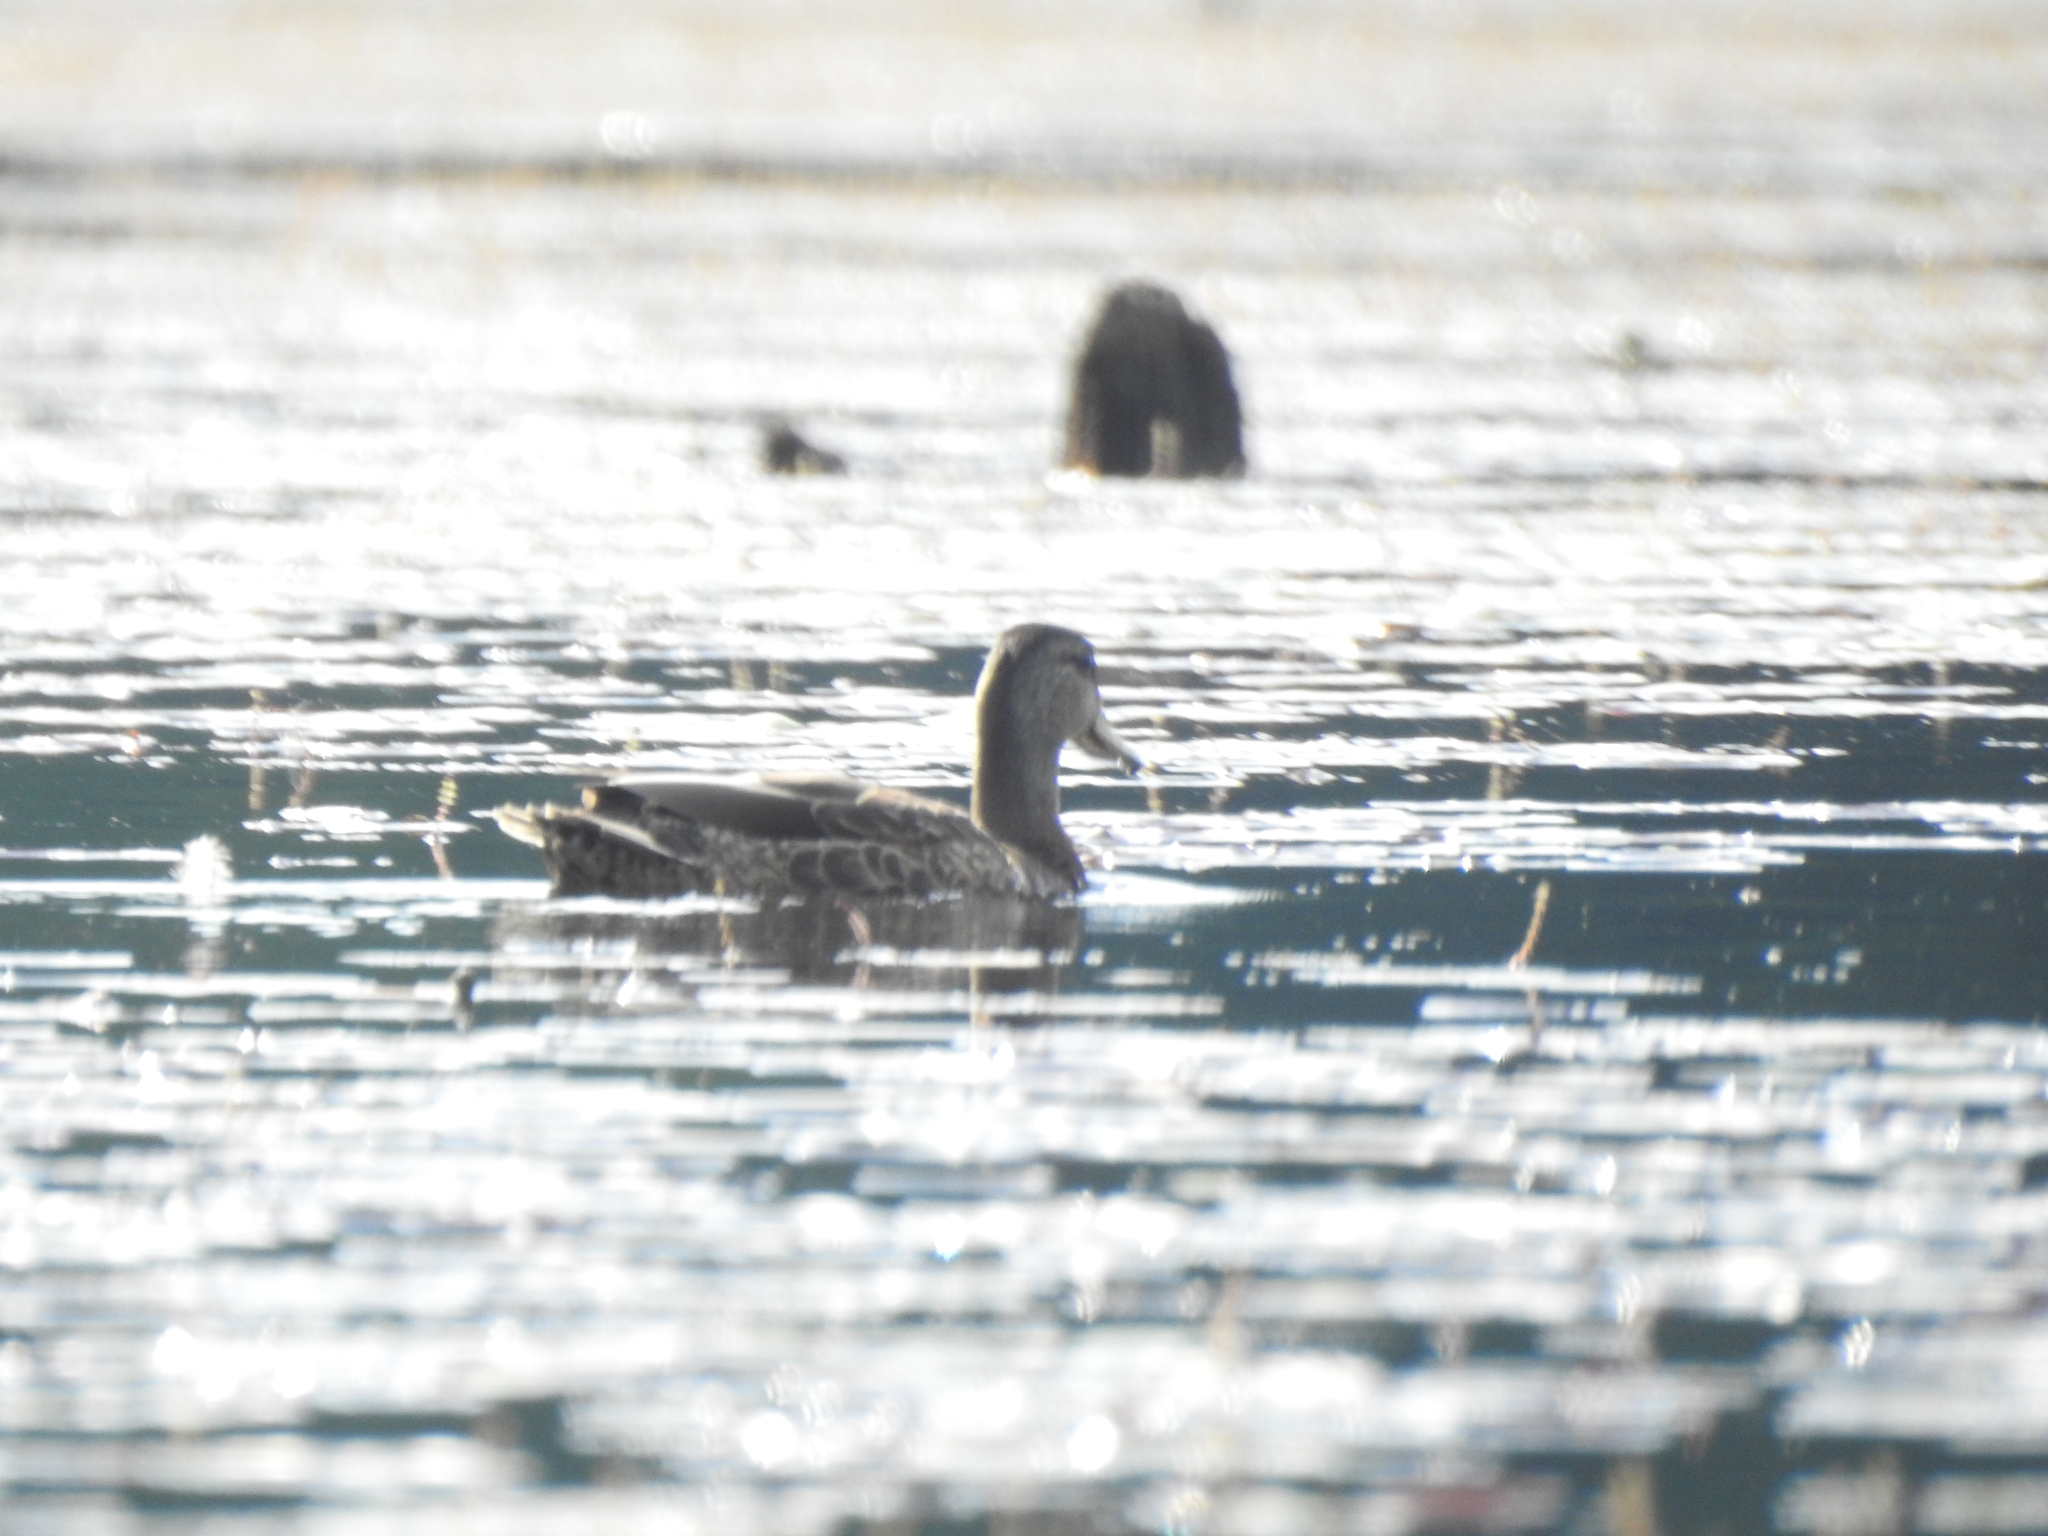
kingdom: Animalia
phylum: Chordata
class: Aves
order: Anseriformes
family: Anatidae
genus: Anas
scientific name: Anas platyrhynchos
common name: Mallard
